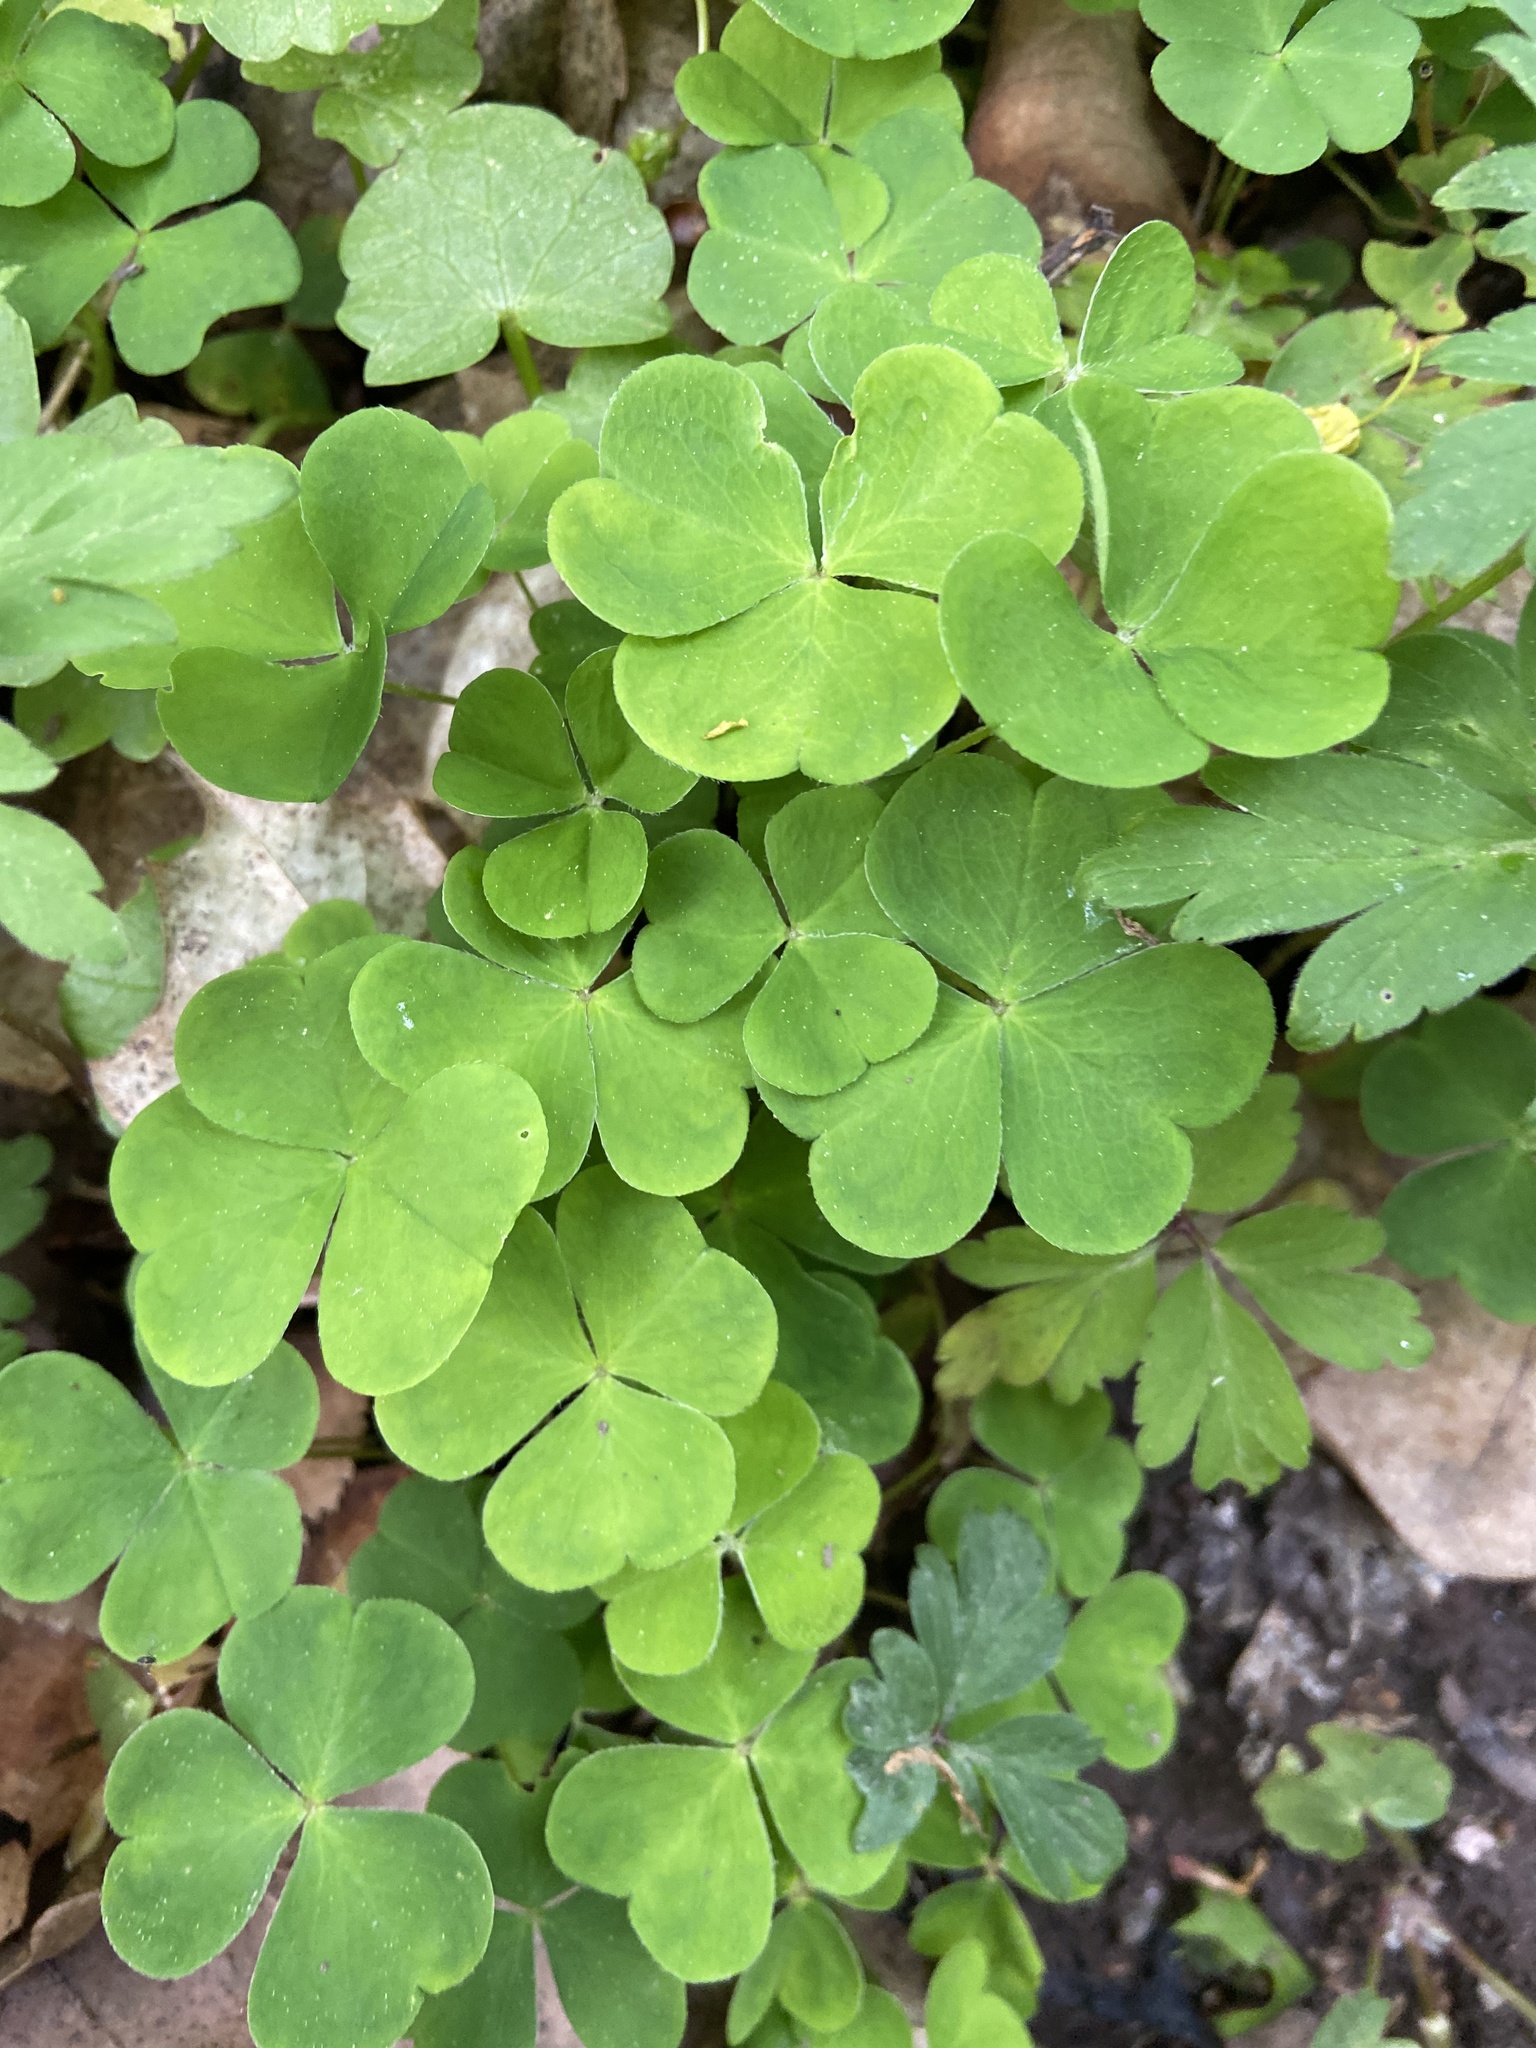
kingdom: Plantae
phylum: Tracheophyta
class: Magnoliopsida
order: Oxalidales
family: Oxalidaceae
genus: Oxalis
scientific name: Oxalis acetosella
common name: Wood-sorrel
